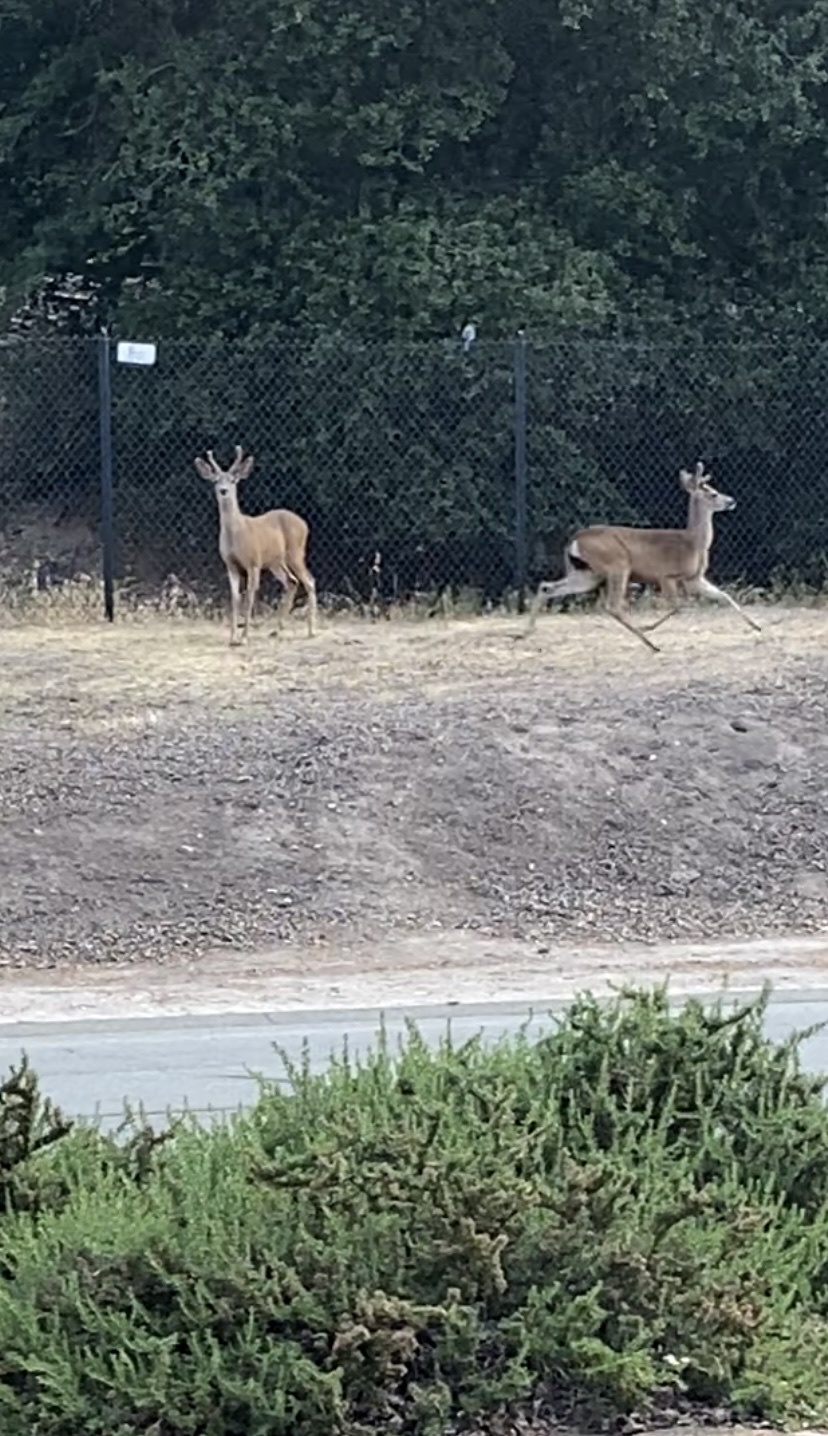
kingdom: Animalia
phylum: Chordata
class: Mammalia
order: Artiodactyla
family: Cervidae
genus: Odocoileus
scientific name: Odocoileus hemionus
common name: Mule deer
